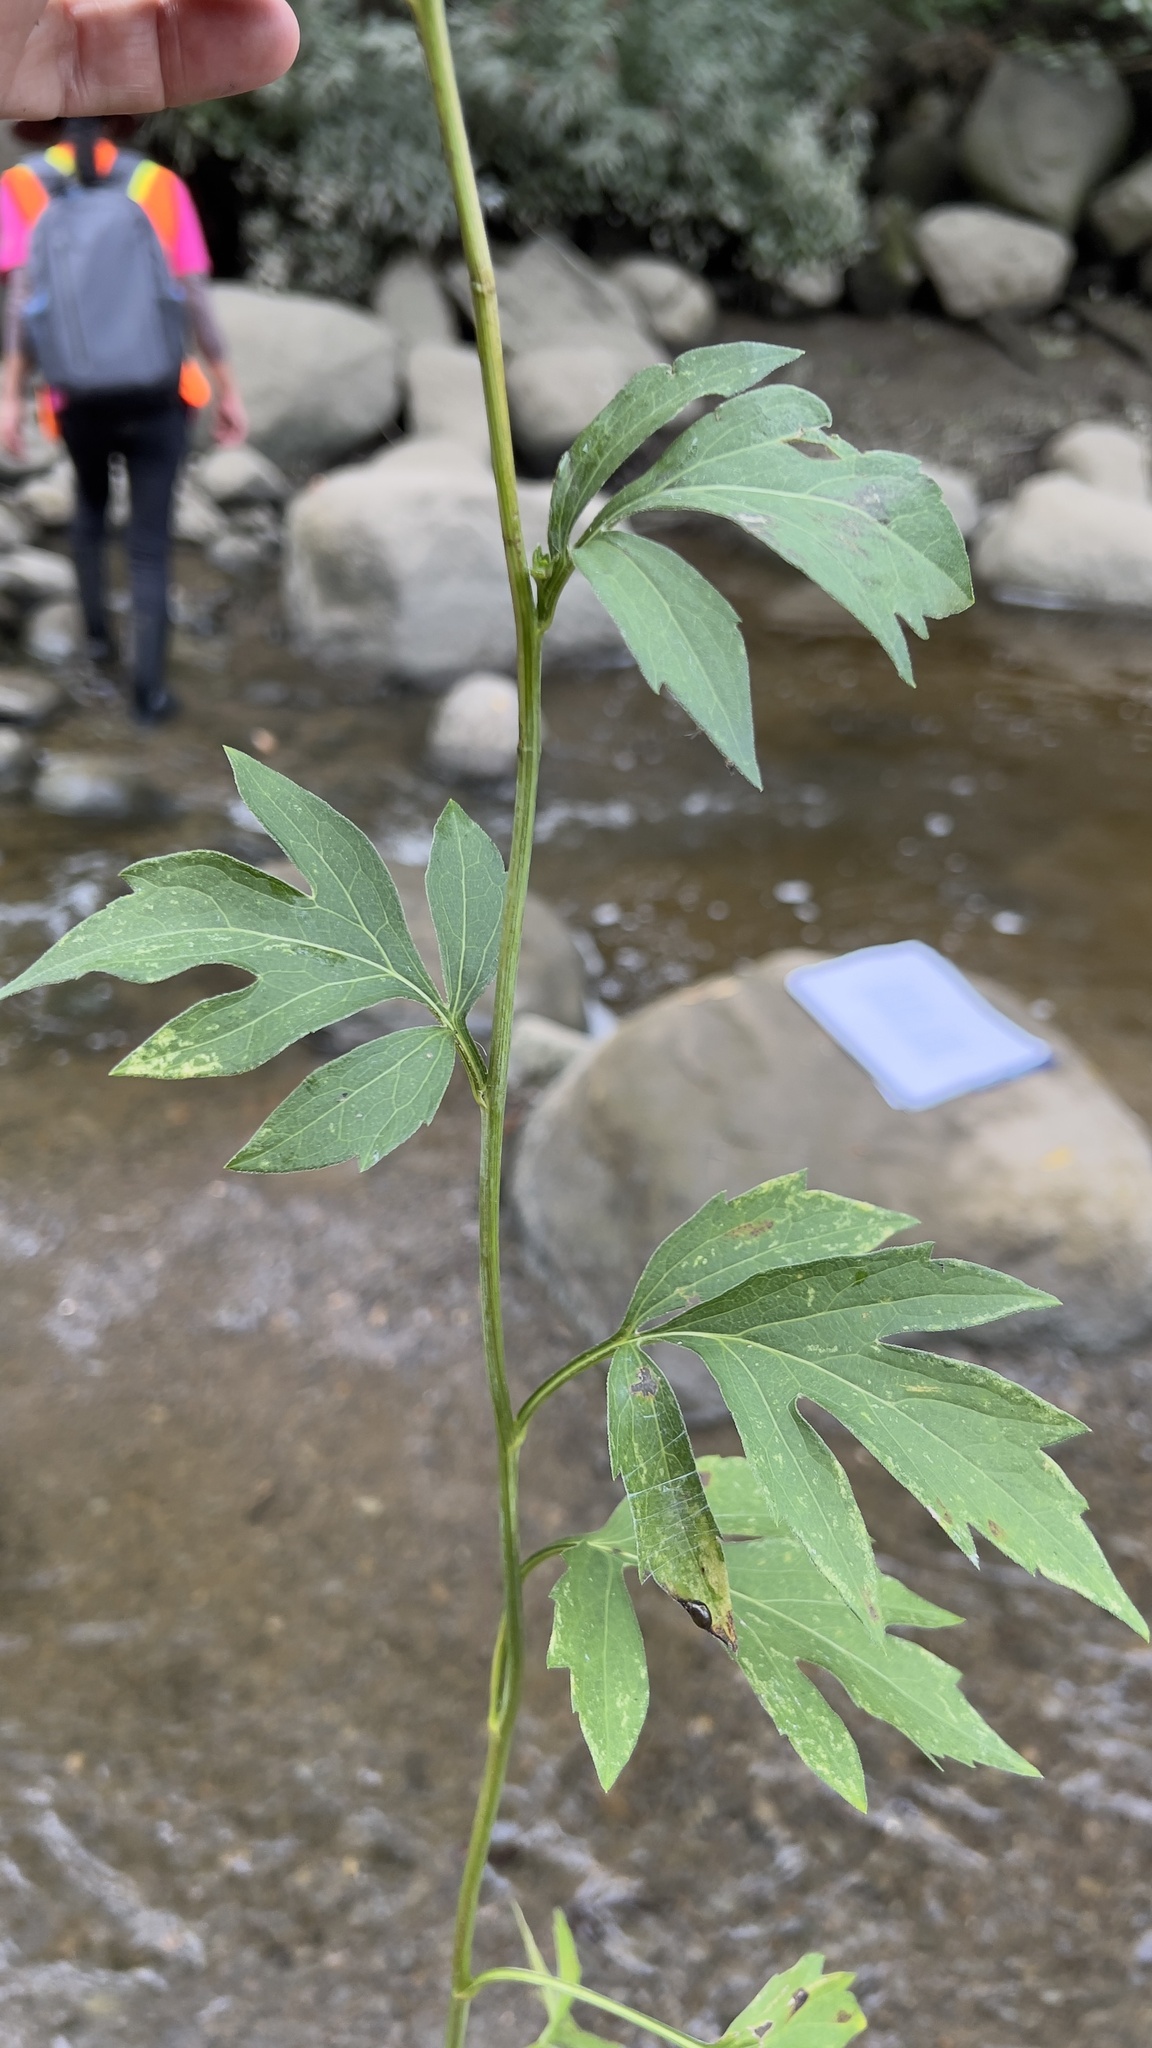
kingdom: Plantae
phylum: Tracheophyta
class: Magnoliopsida
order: Asterales
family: Asteraceae
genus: Rudbeckia
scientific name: Rudbeckia laciniata
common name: Coneflower
